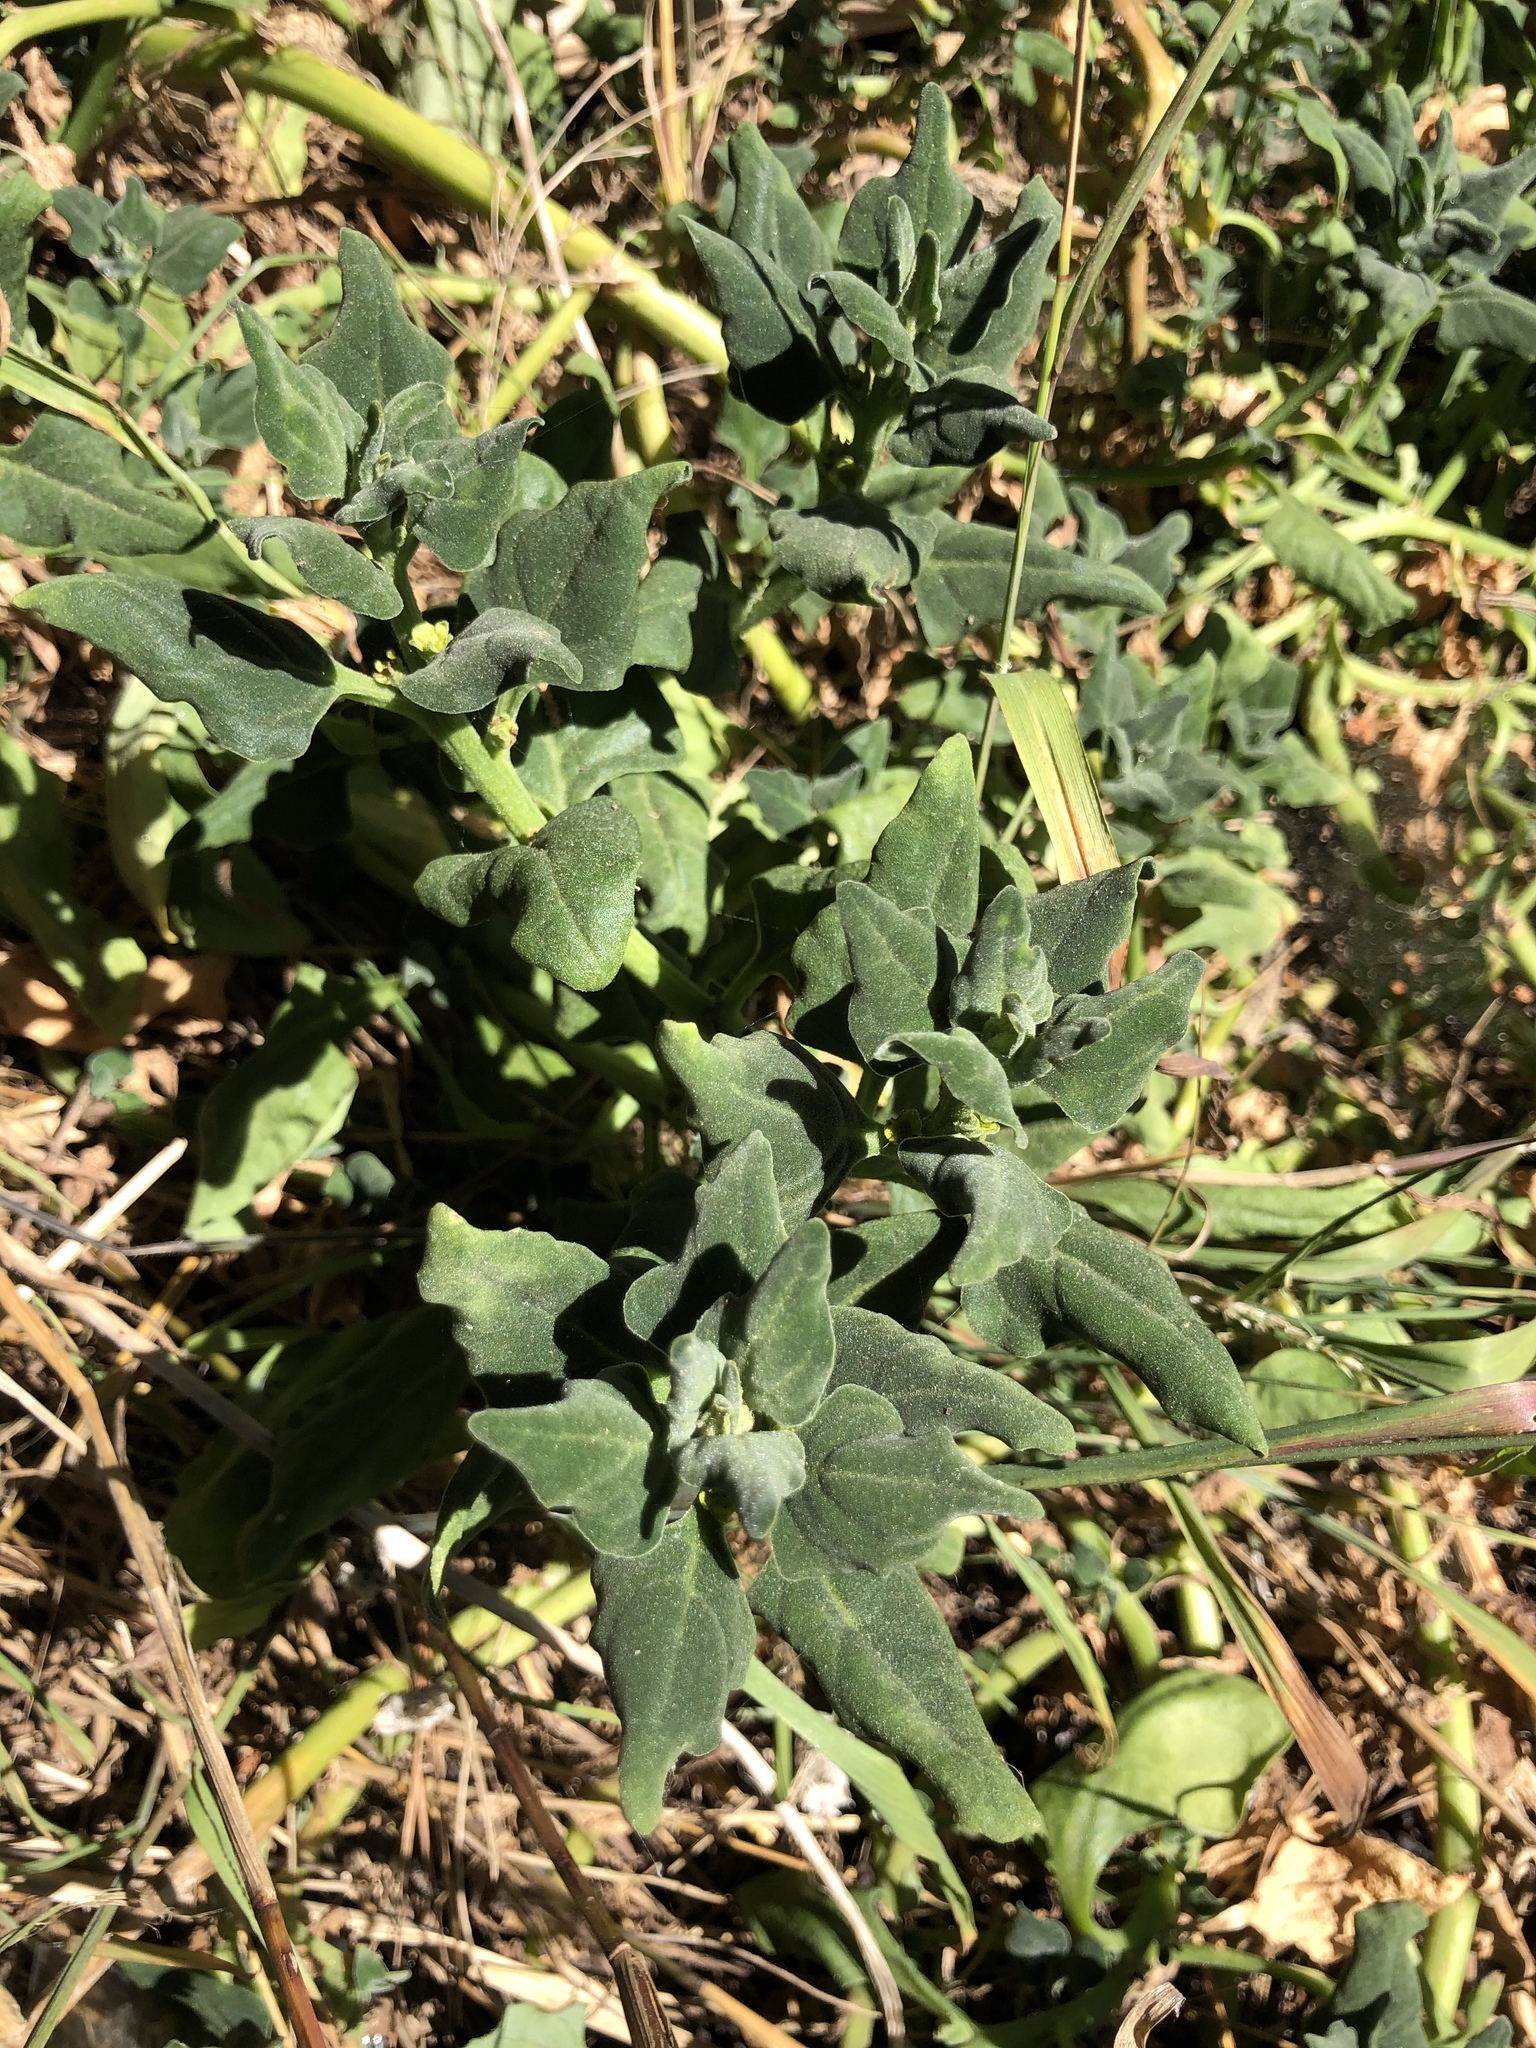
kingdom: Plantae
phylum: Tracheophyta
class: Magnoliopsida
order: Caryophyllales
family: Aizoaceae
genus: Tetragonia
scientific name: Tetragonia tetragonoides
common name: New zealand-spinach
